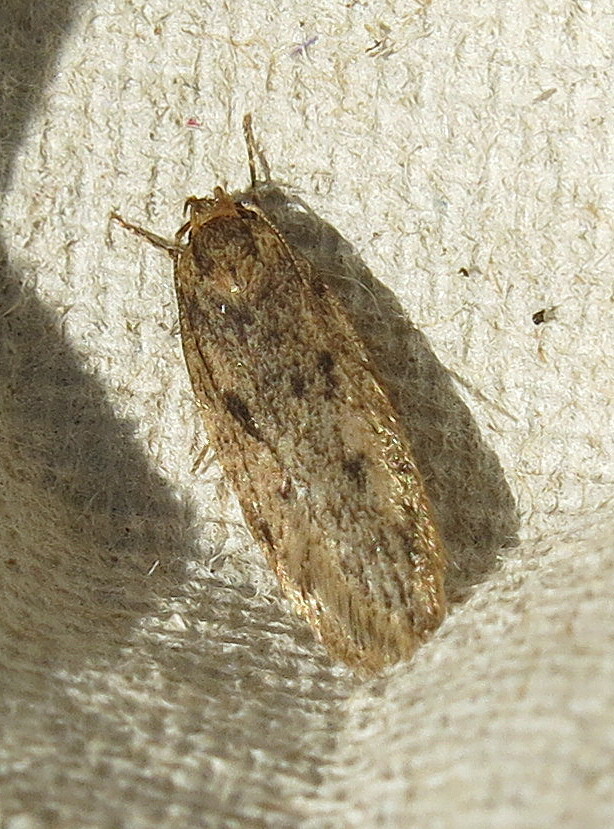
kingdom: Animalia
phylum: Arthropoda
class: Insecta
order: Lepidoptera
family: Oecophoridae
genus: Hofmannophila
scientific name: Hofmannophila pseudospretella
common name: Brown house moth
